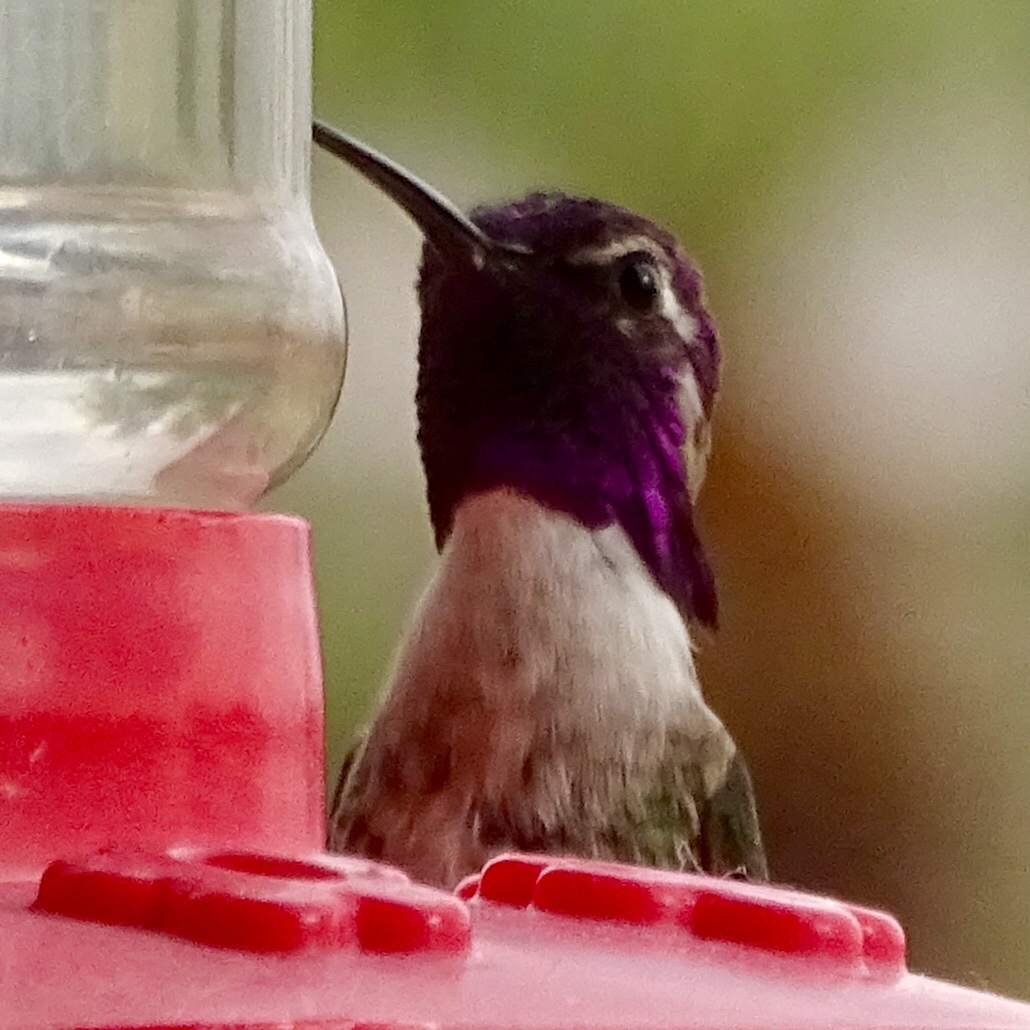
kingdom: Animalia
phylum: Chordata
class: Aves
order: Apodiformes
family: Trochilidae
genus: Calypte
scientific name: Calypte costae
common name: Costa's hummingbird
